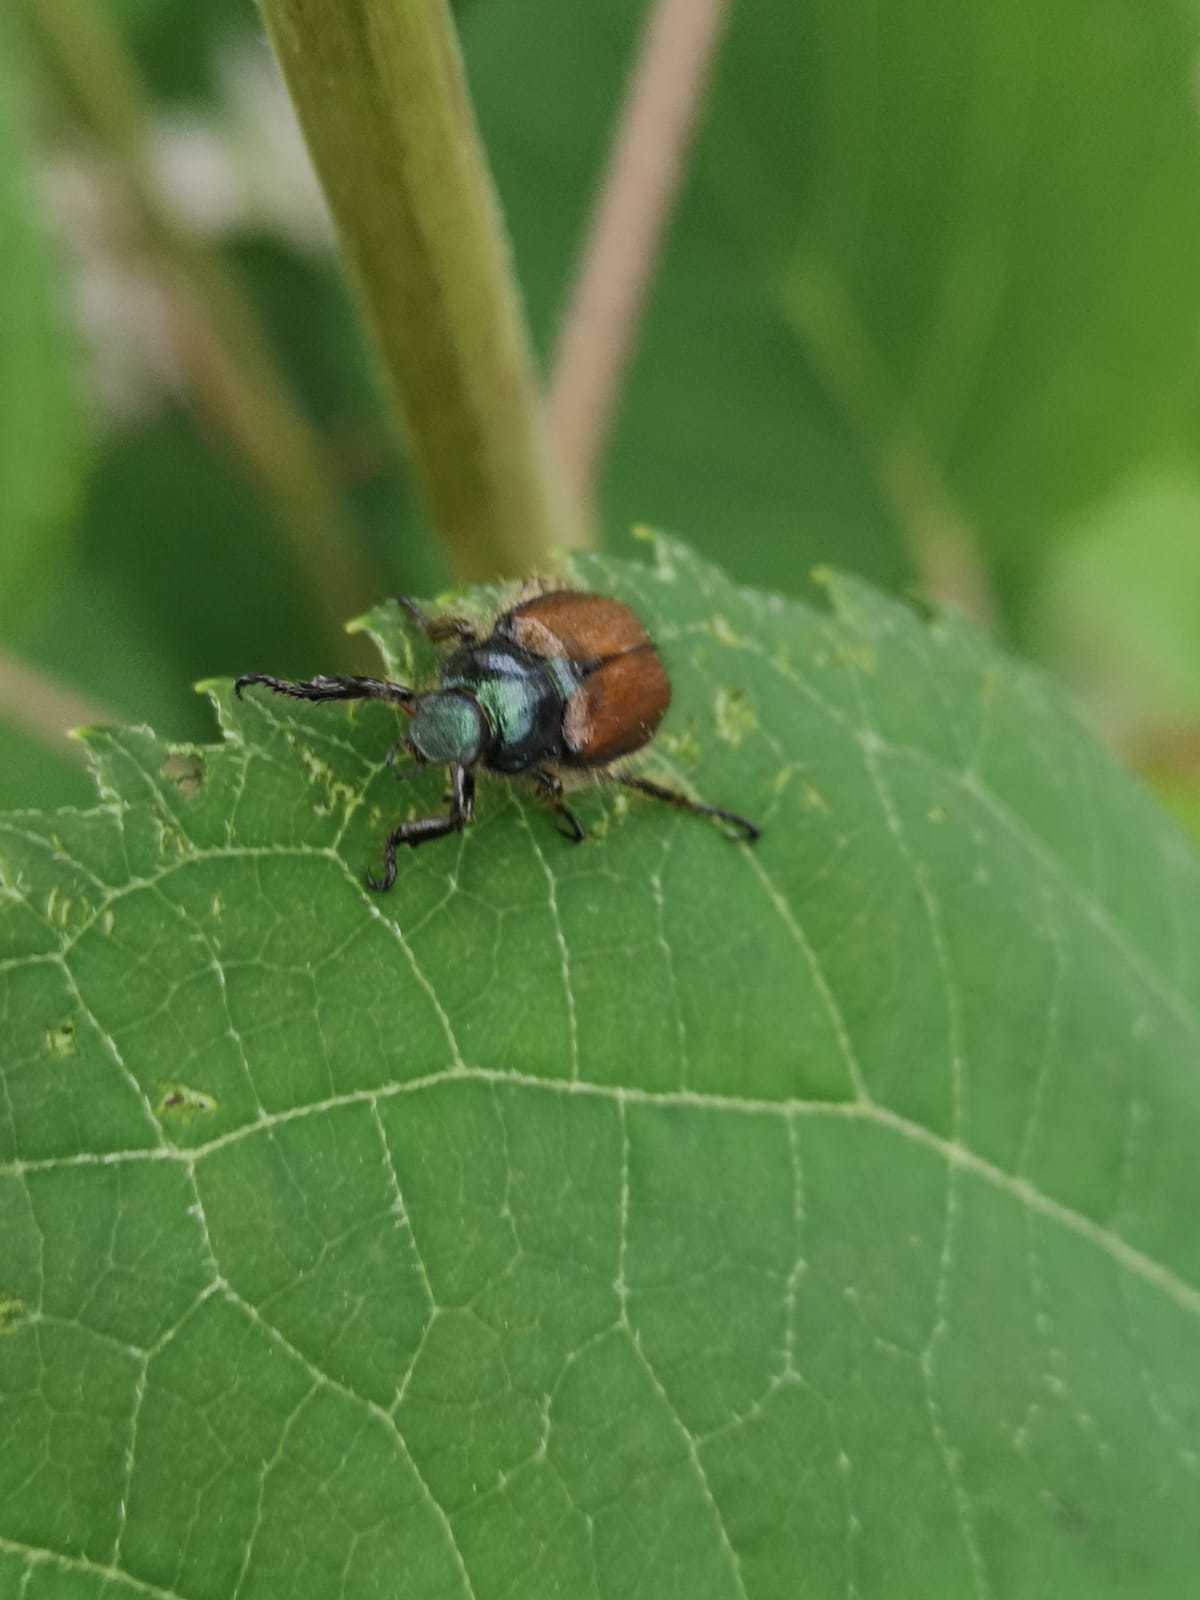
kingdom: Animalia
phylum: Arthropoda
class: Insecta
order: Coleoptera
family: Scarabaeidae
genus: Phyllopertha
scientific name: Phyllopertha horticola
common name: Garden chafer
